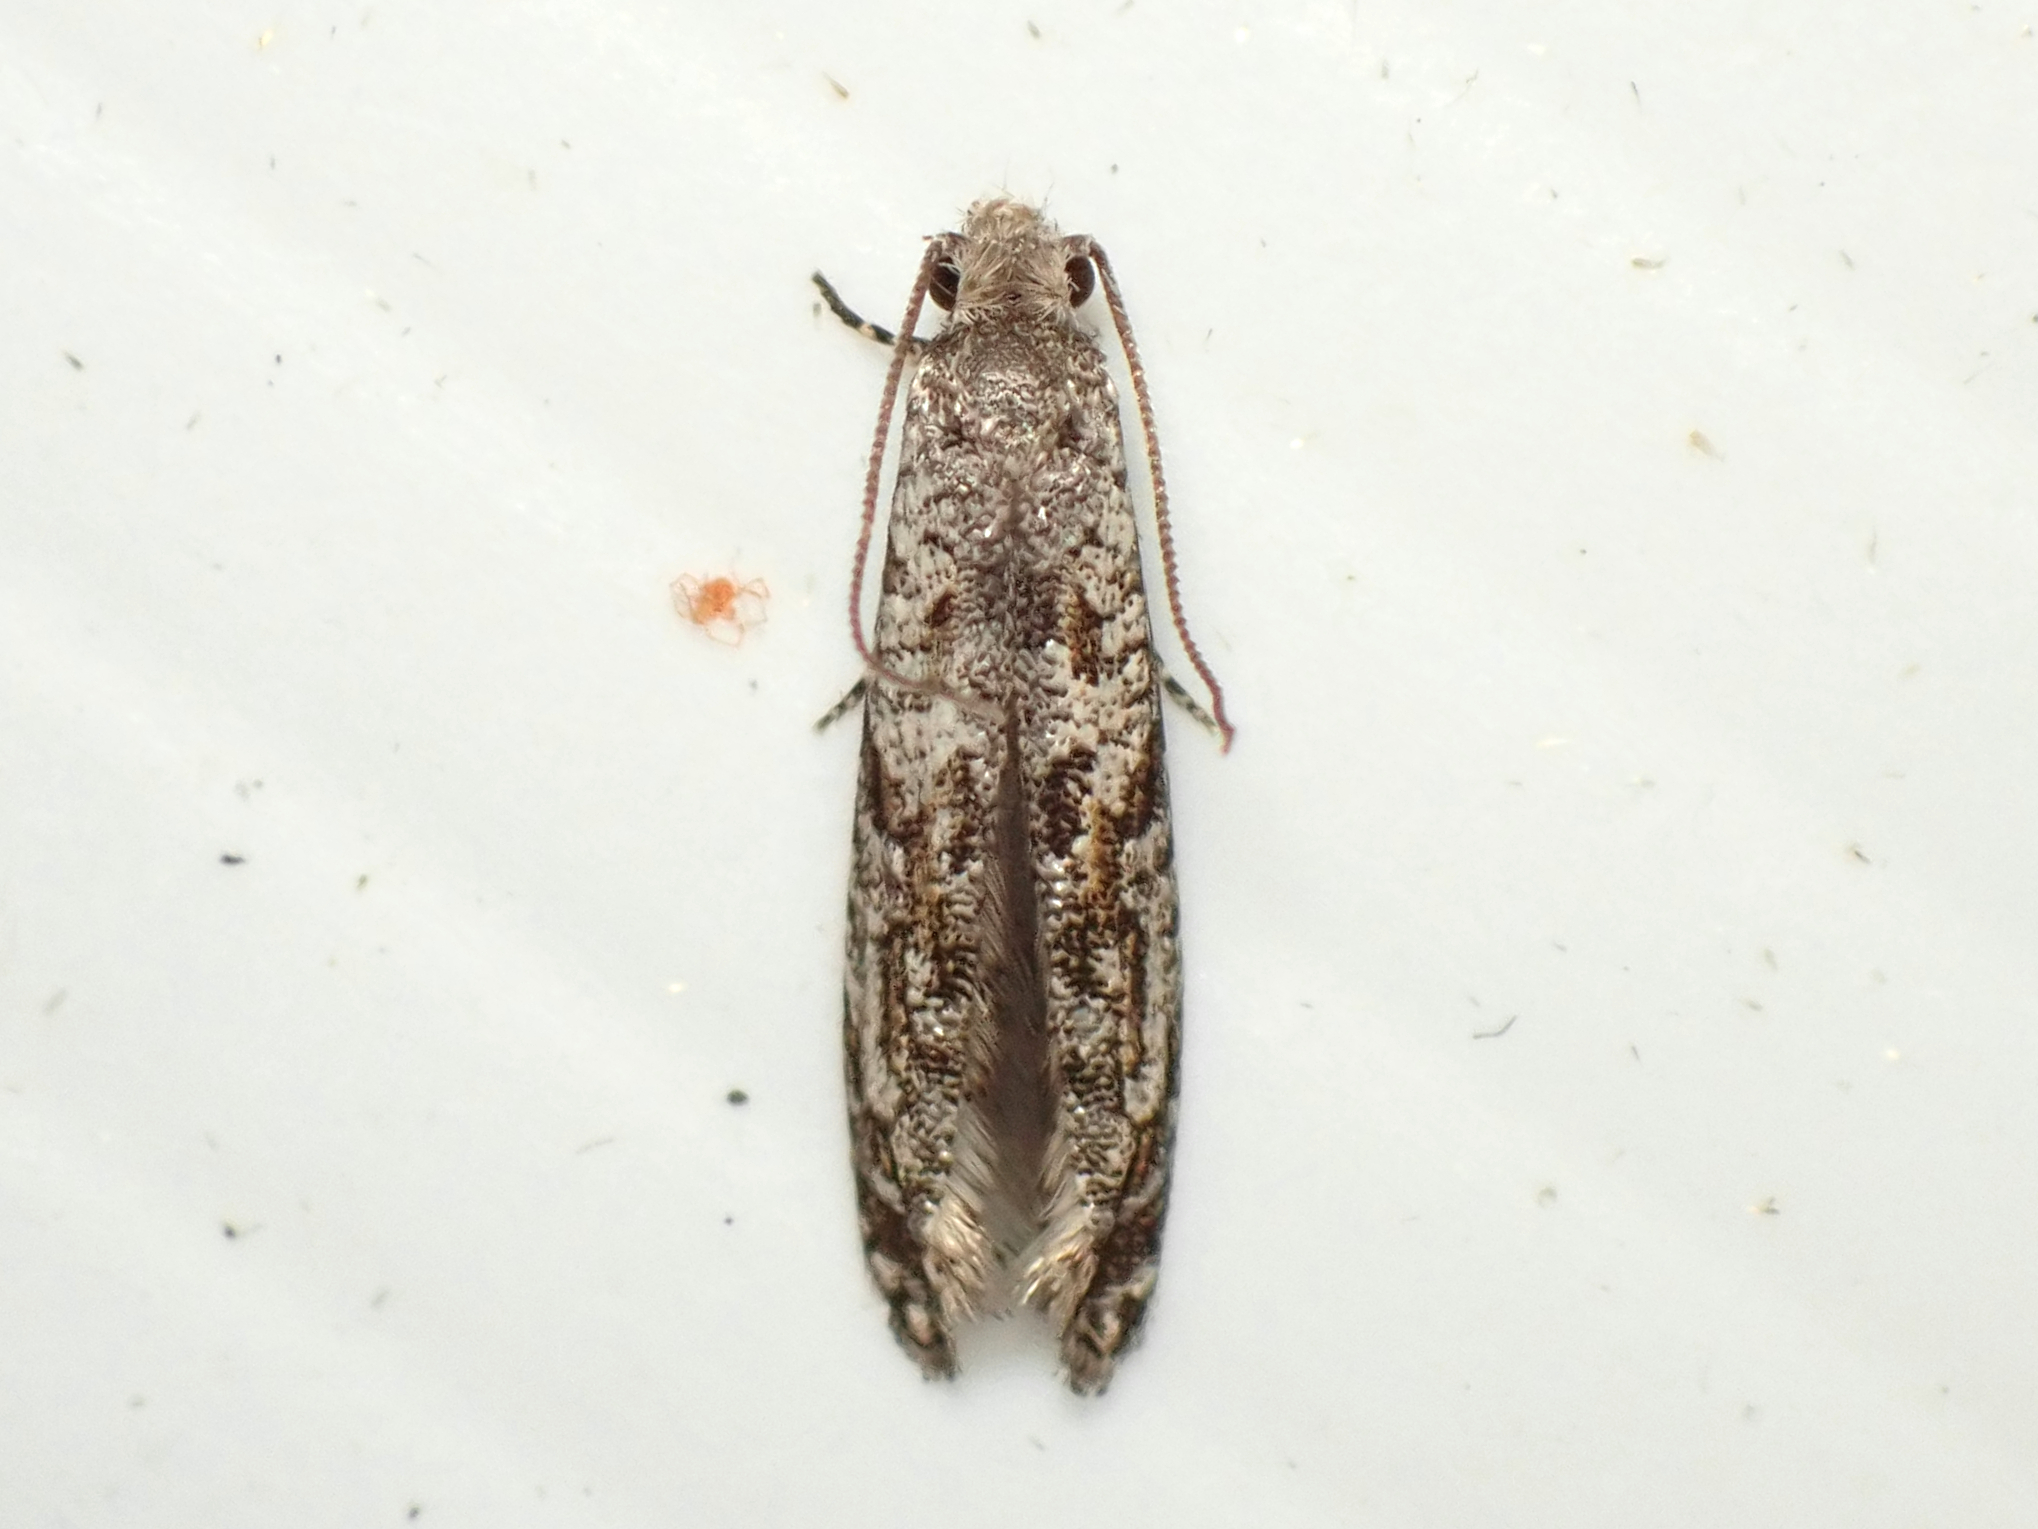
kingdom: Animalia
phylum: Arthropoda
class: Insecta
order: Lepidoptera
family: Tineidae
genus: Archyala
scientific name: Archyala paraglypta
